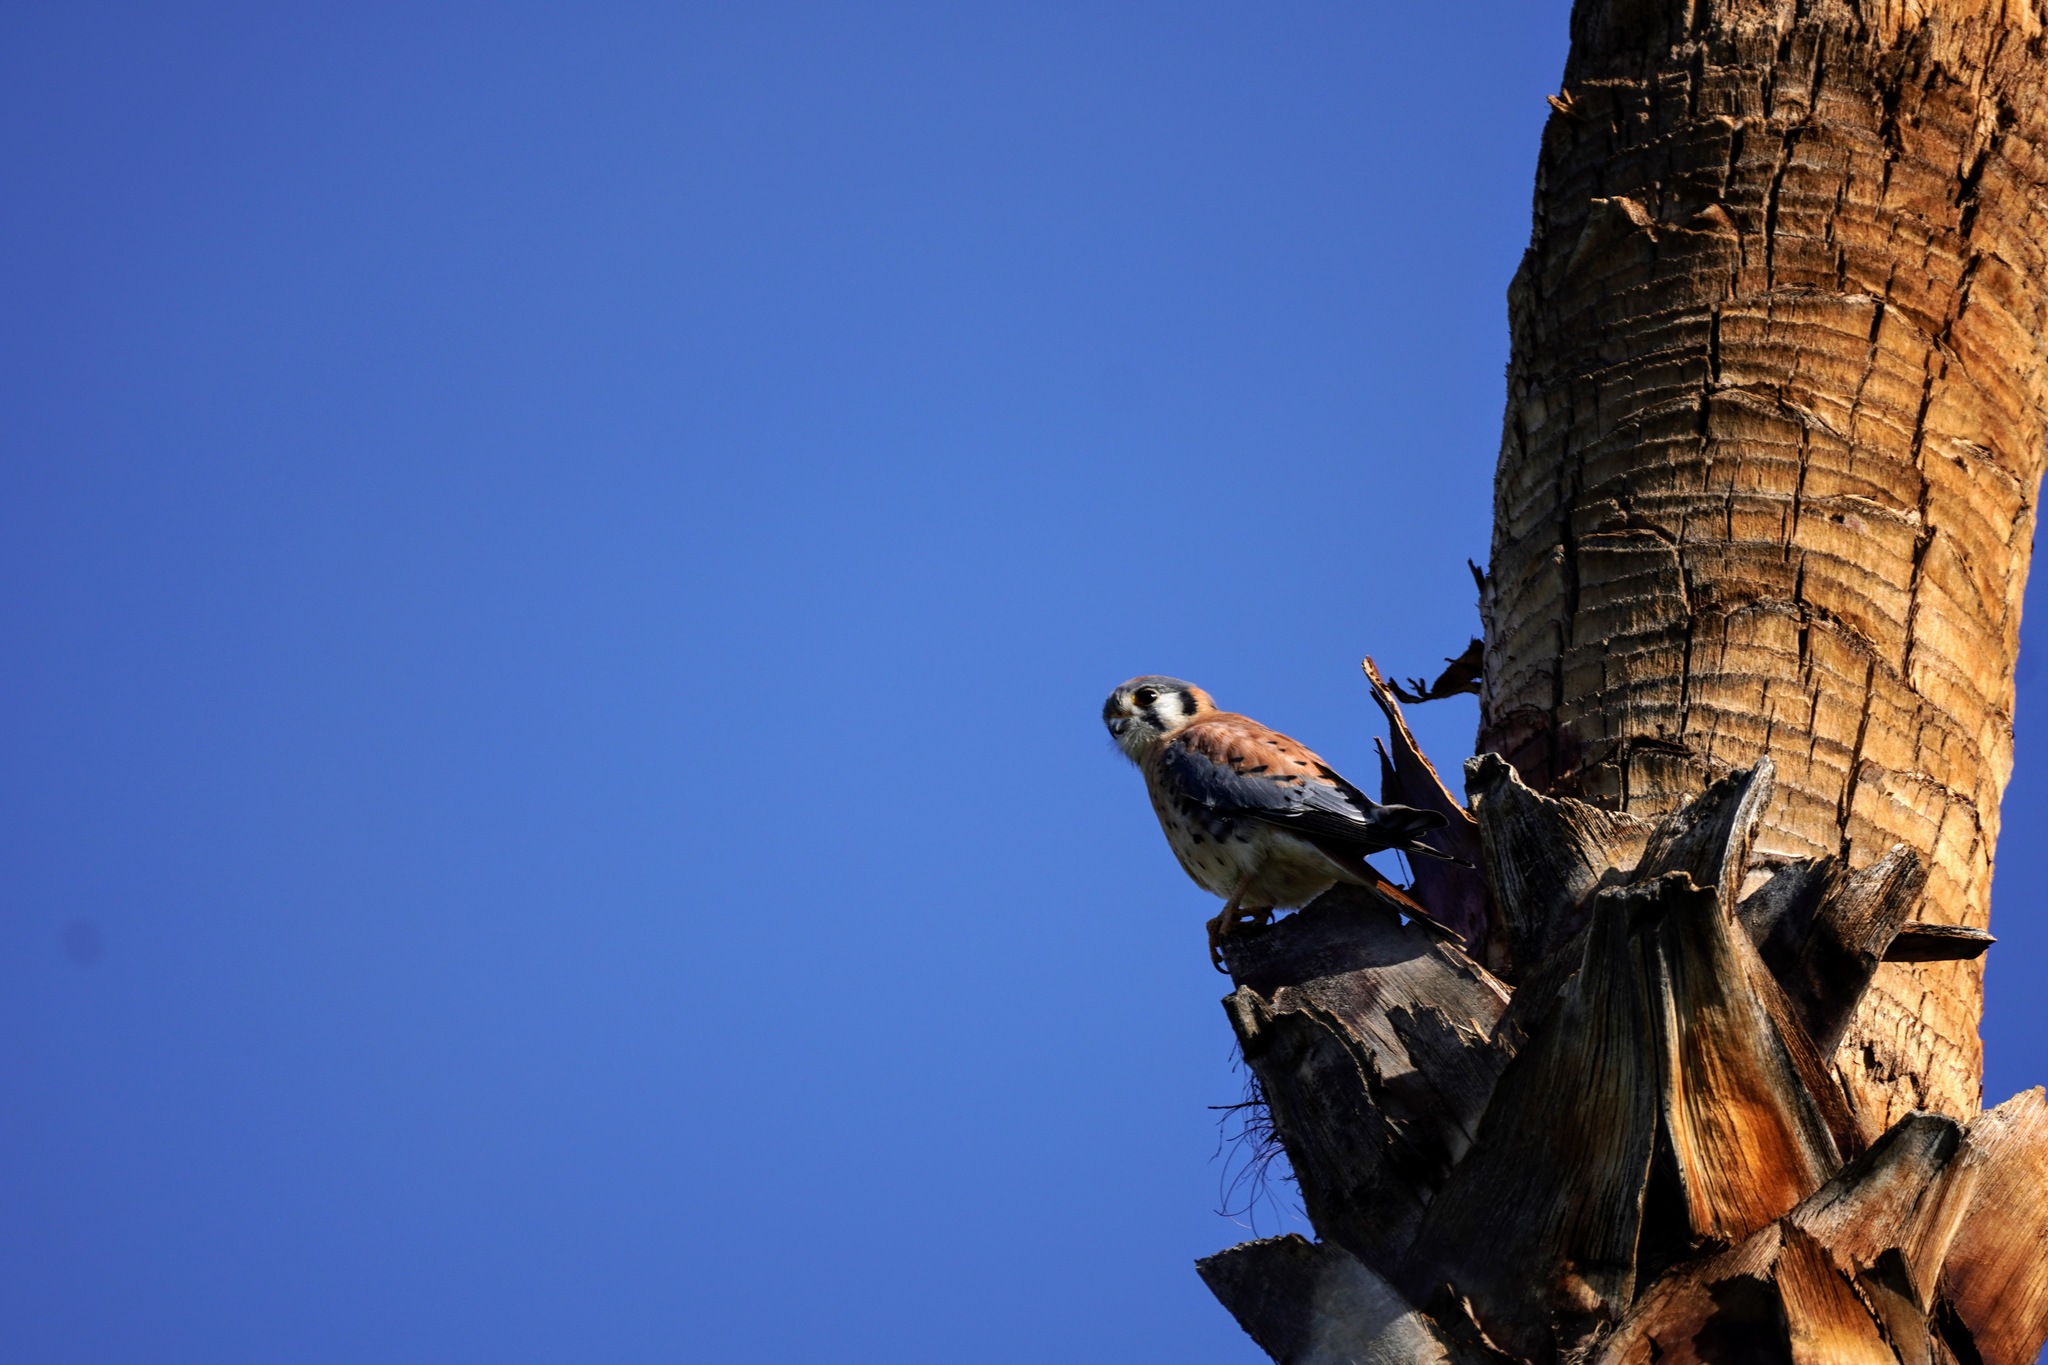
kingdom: Animalia
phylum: Chordata
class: Aves
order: Falconiformes
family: Falconidae
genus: Falco
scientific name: Falco sparverius
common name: American kestrel
